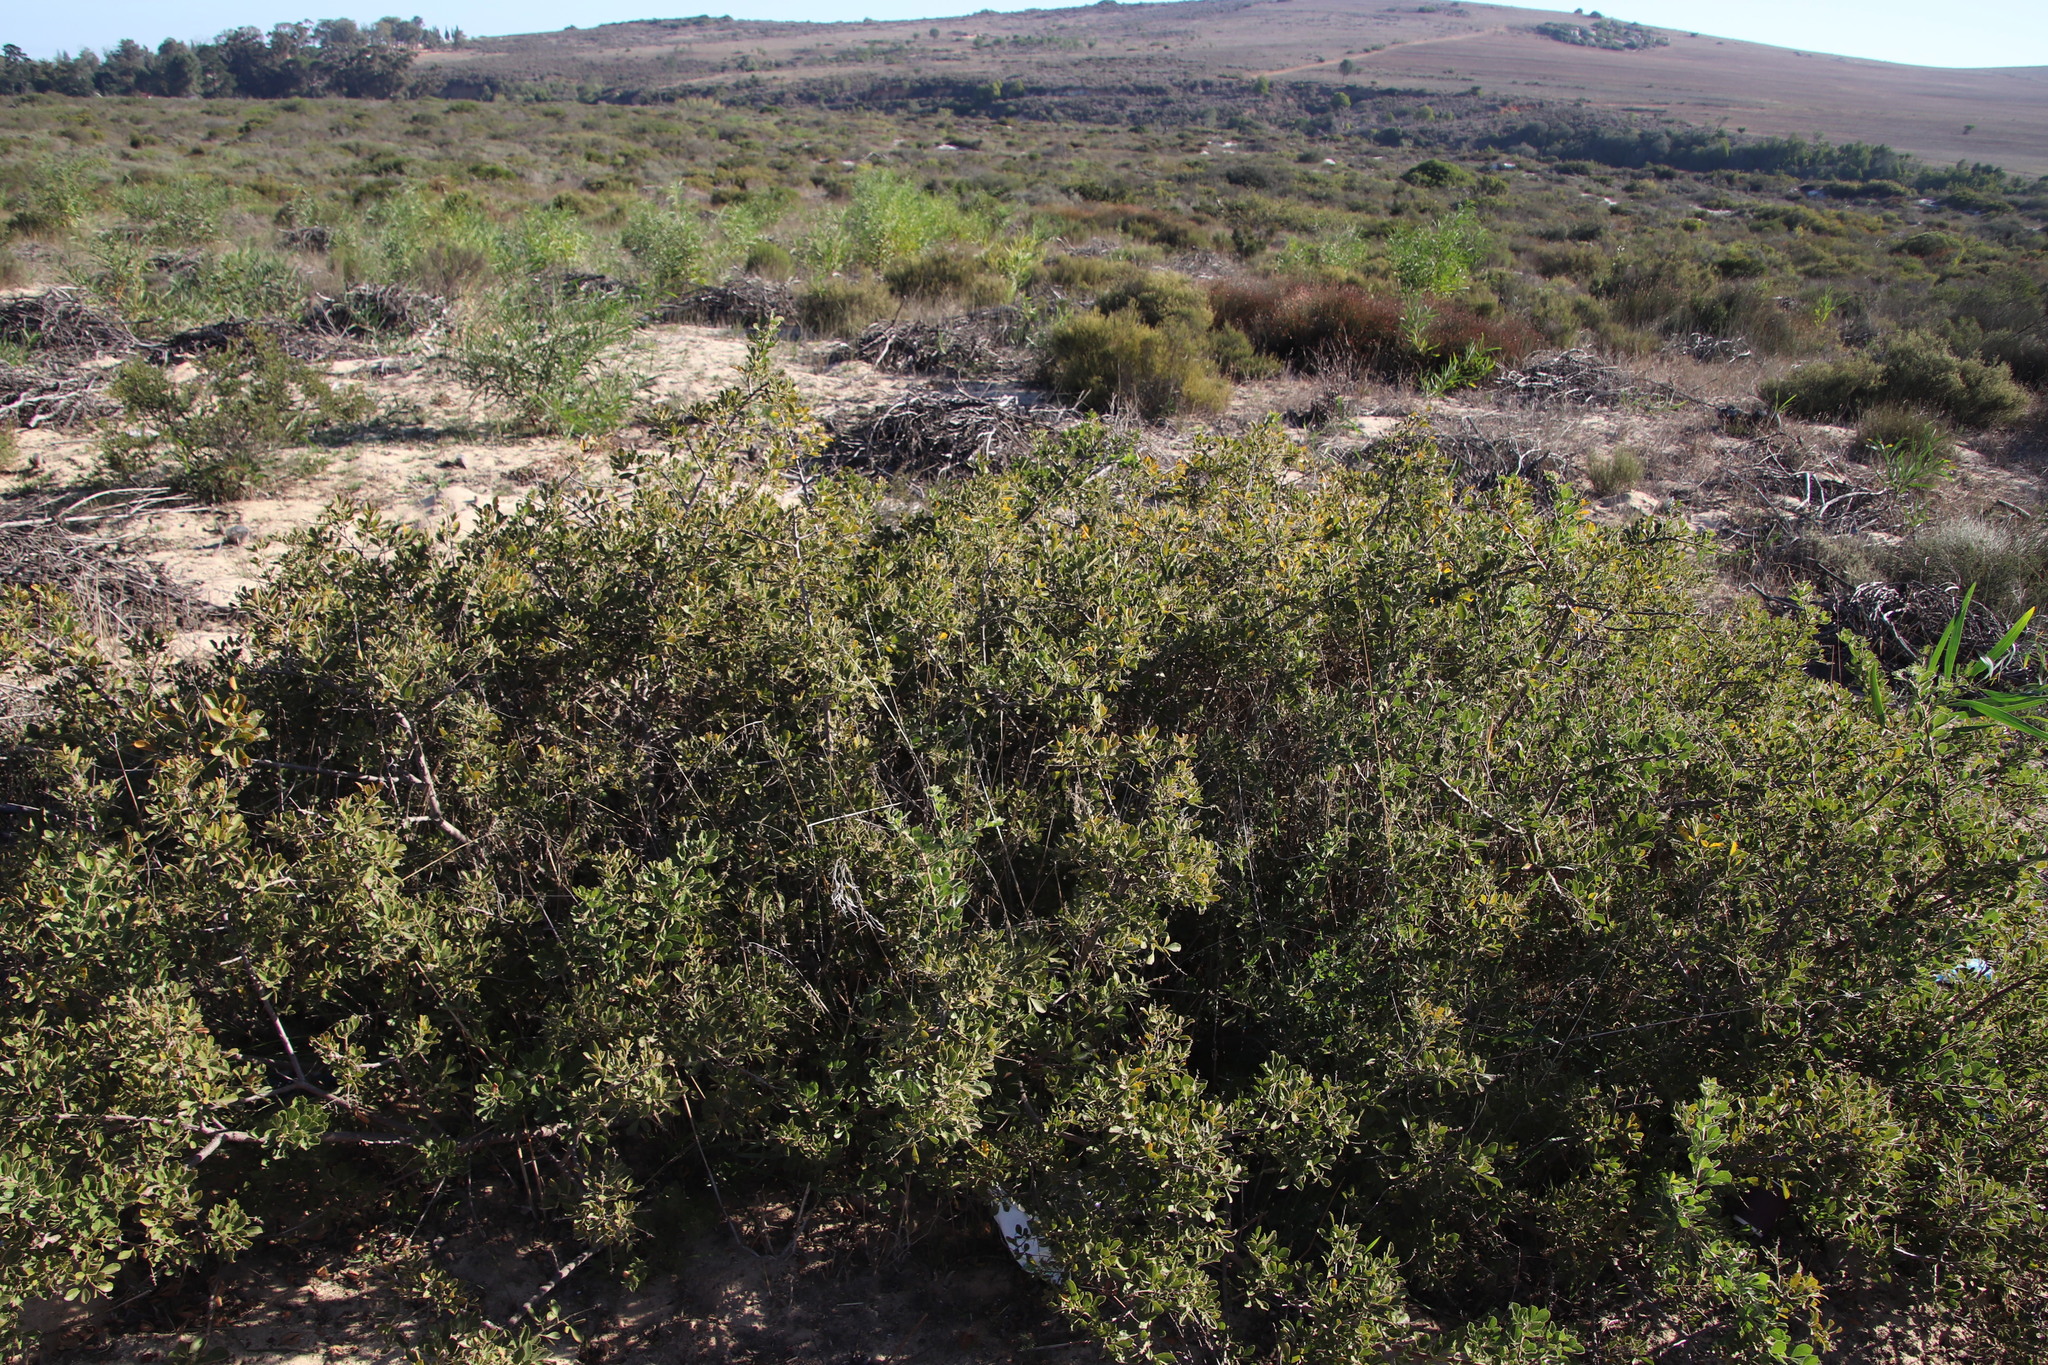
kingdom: Plantae
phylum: Tracheophyta
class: Magnoliopsida
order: Sapindales
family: Anacardiaceae
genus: Searsia
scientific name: Searsia laevigata
